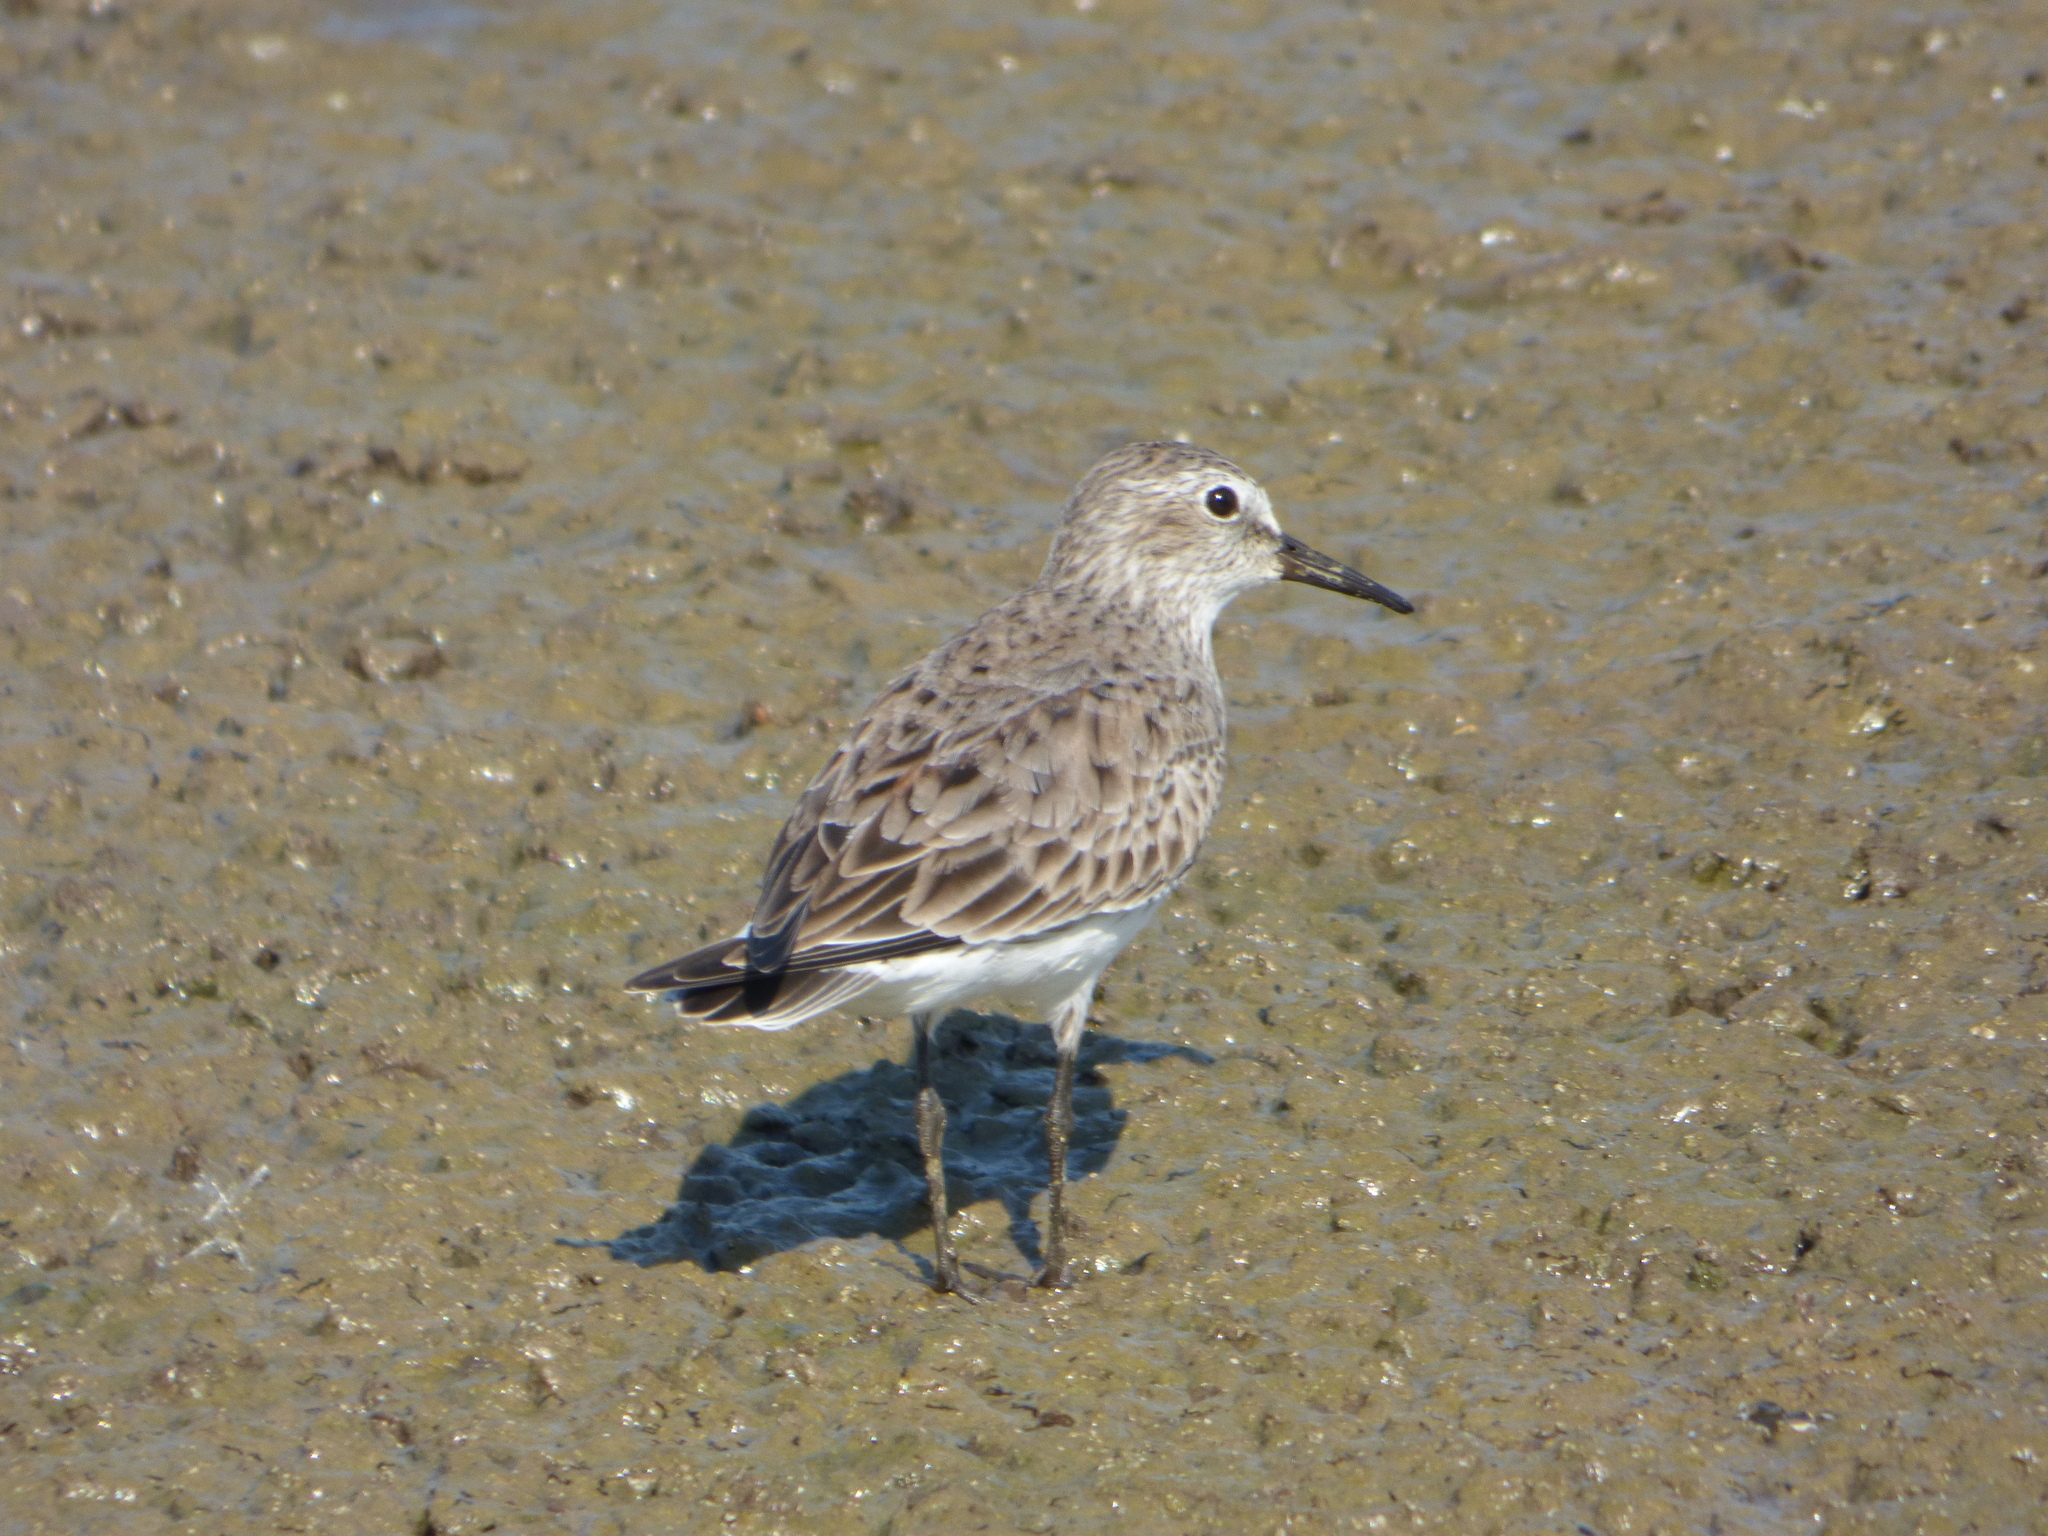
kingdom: Animalia
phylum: Chordata
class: Aves
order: Charadriiformes
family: Scolopacidae
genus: Calidris
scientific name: Calidris fuscicollis
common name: White-rumped sandpiper
